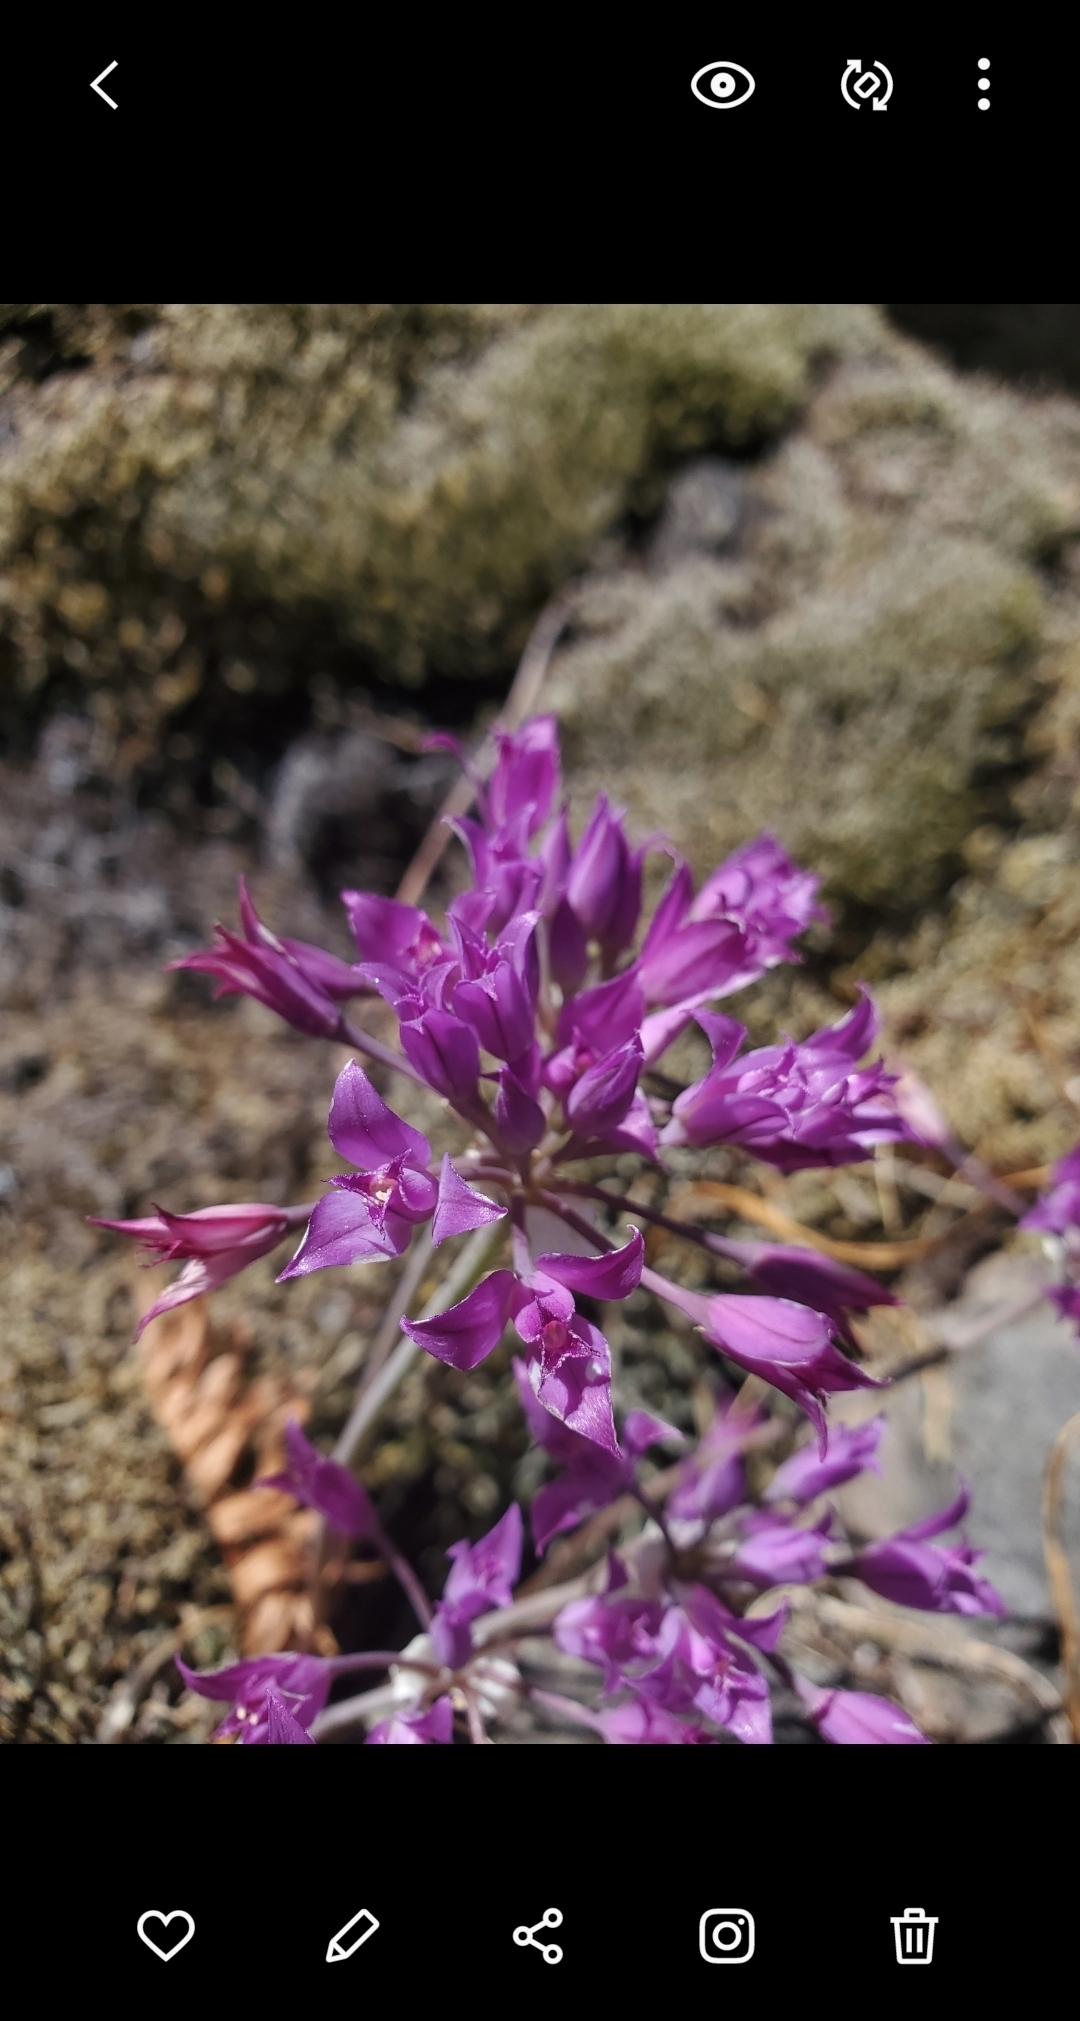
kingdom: Plantae
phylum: Tracheophyta
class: Liliopsida
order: Asparagales
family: Amaryllidaceae
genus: Allium
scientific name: Allium acuminatum
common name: Hooker's onion
